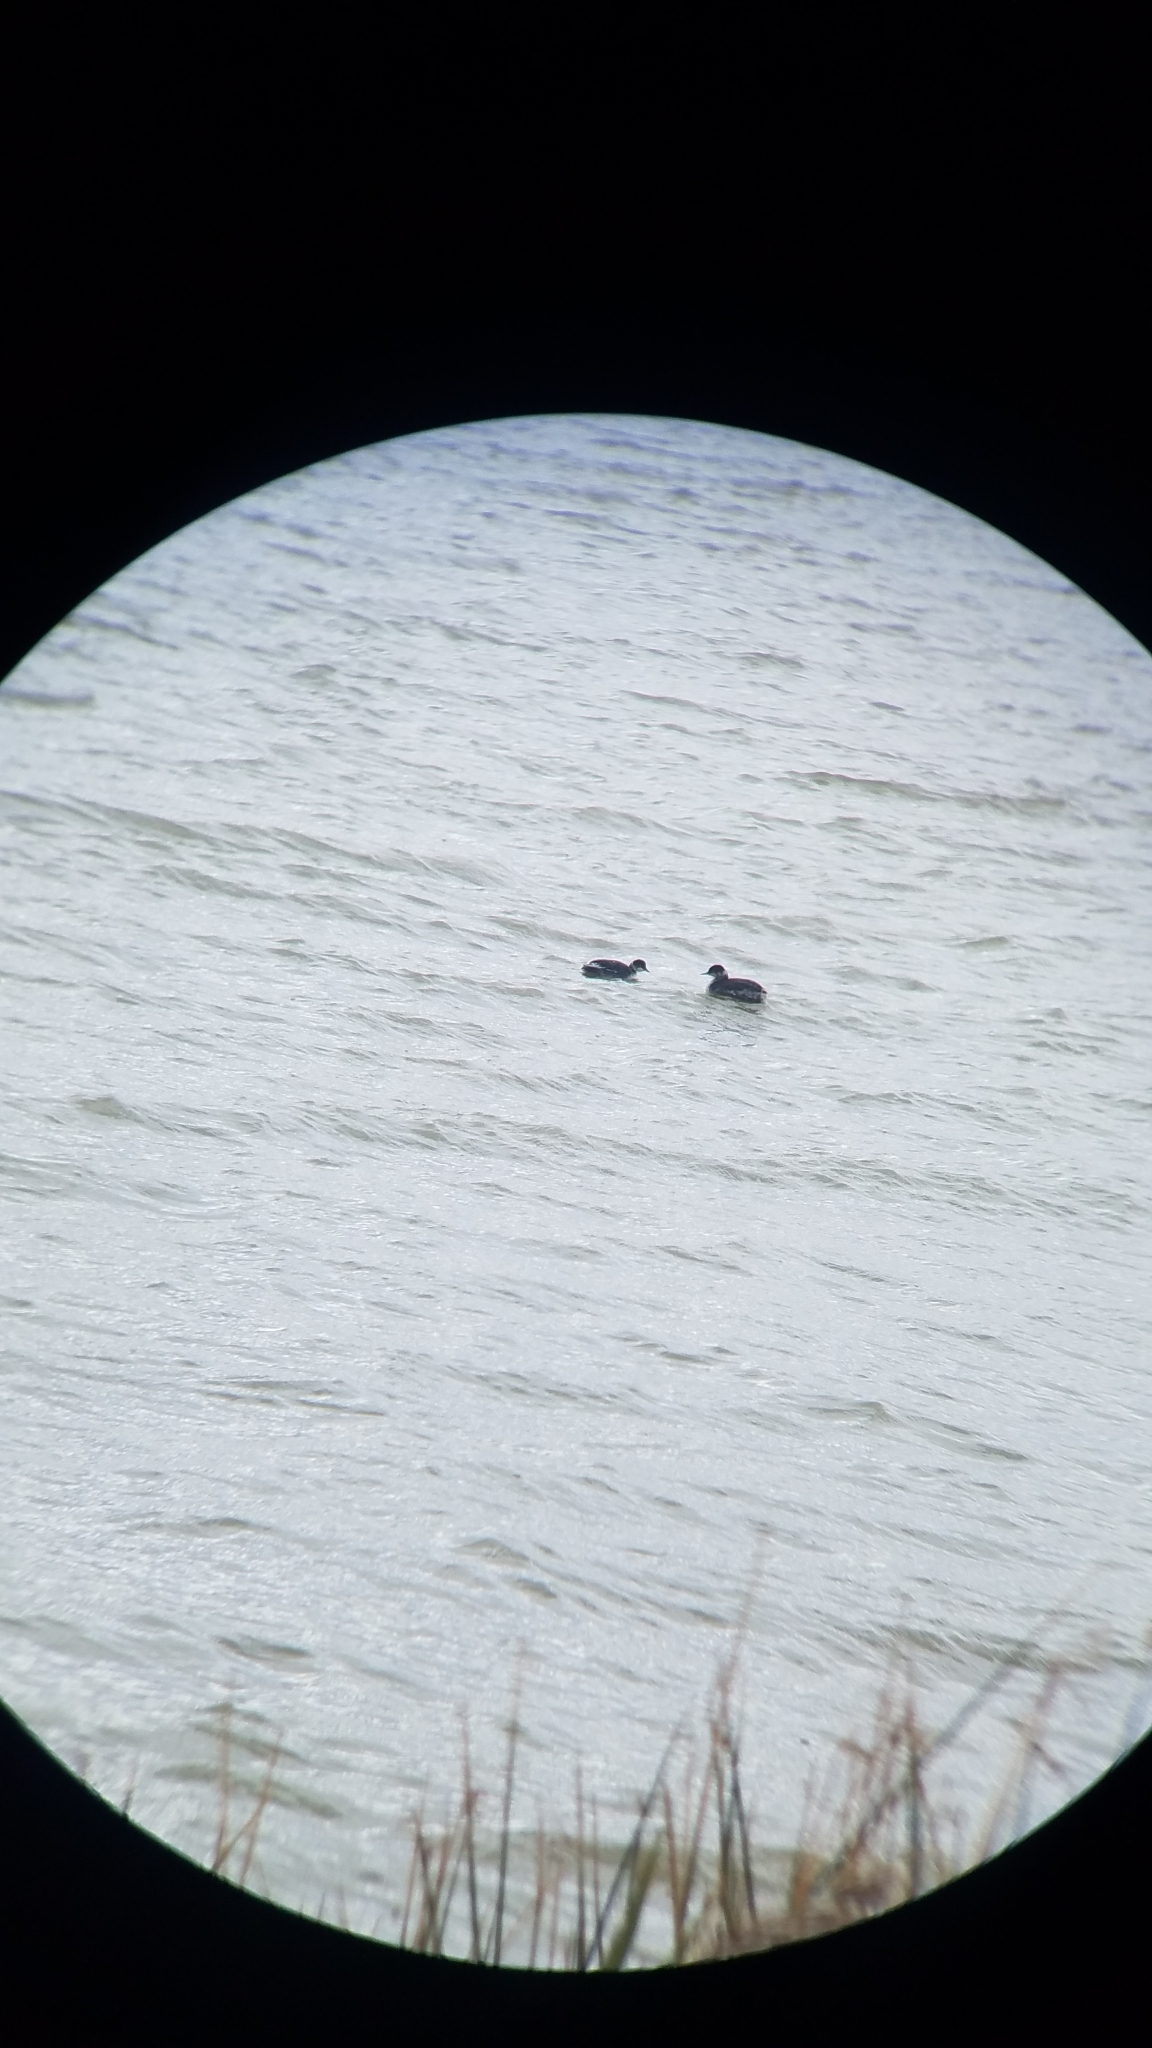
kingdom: Animalia
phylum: Chordata
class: Aves
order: Podicipediformes
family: Podicipedidae
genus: Podiceps
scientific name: Podiceps nigricollis
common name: Black-necked grebe
